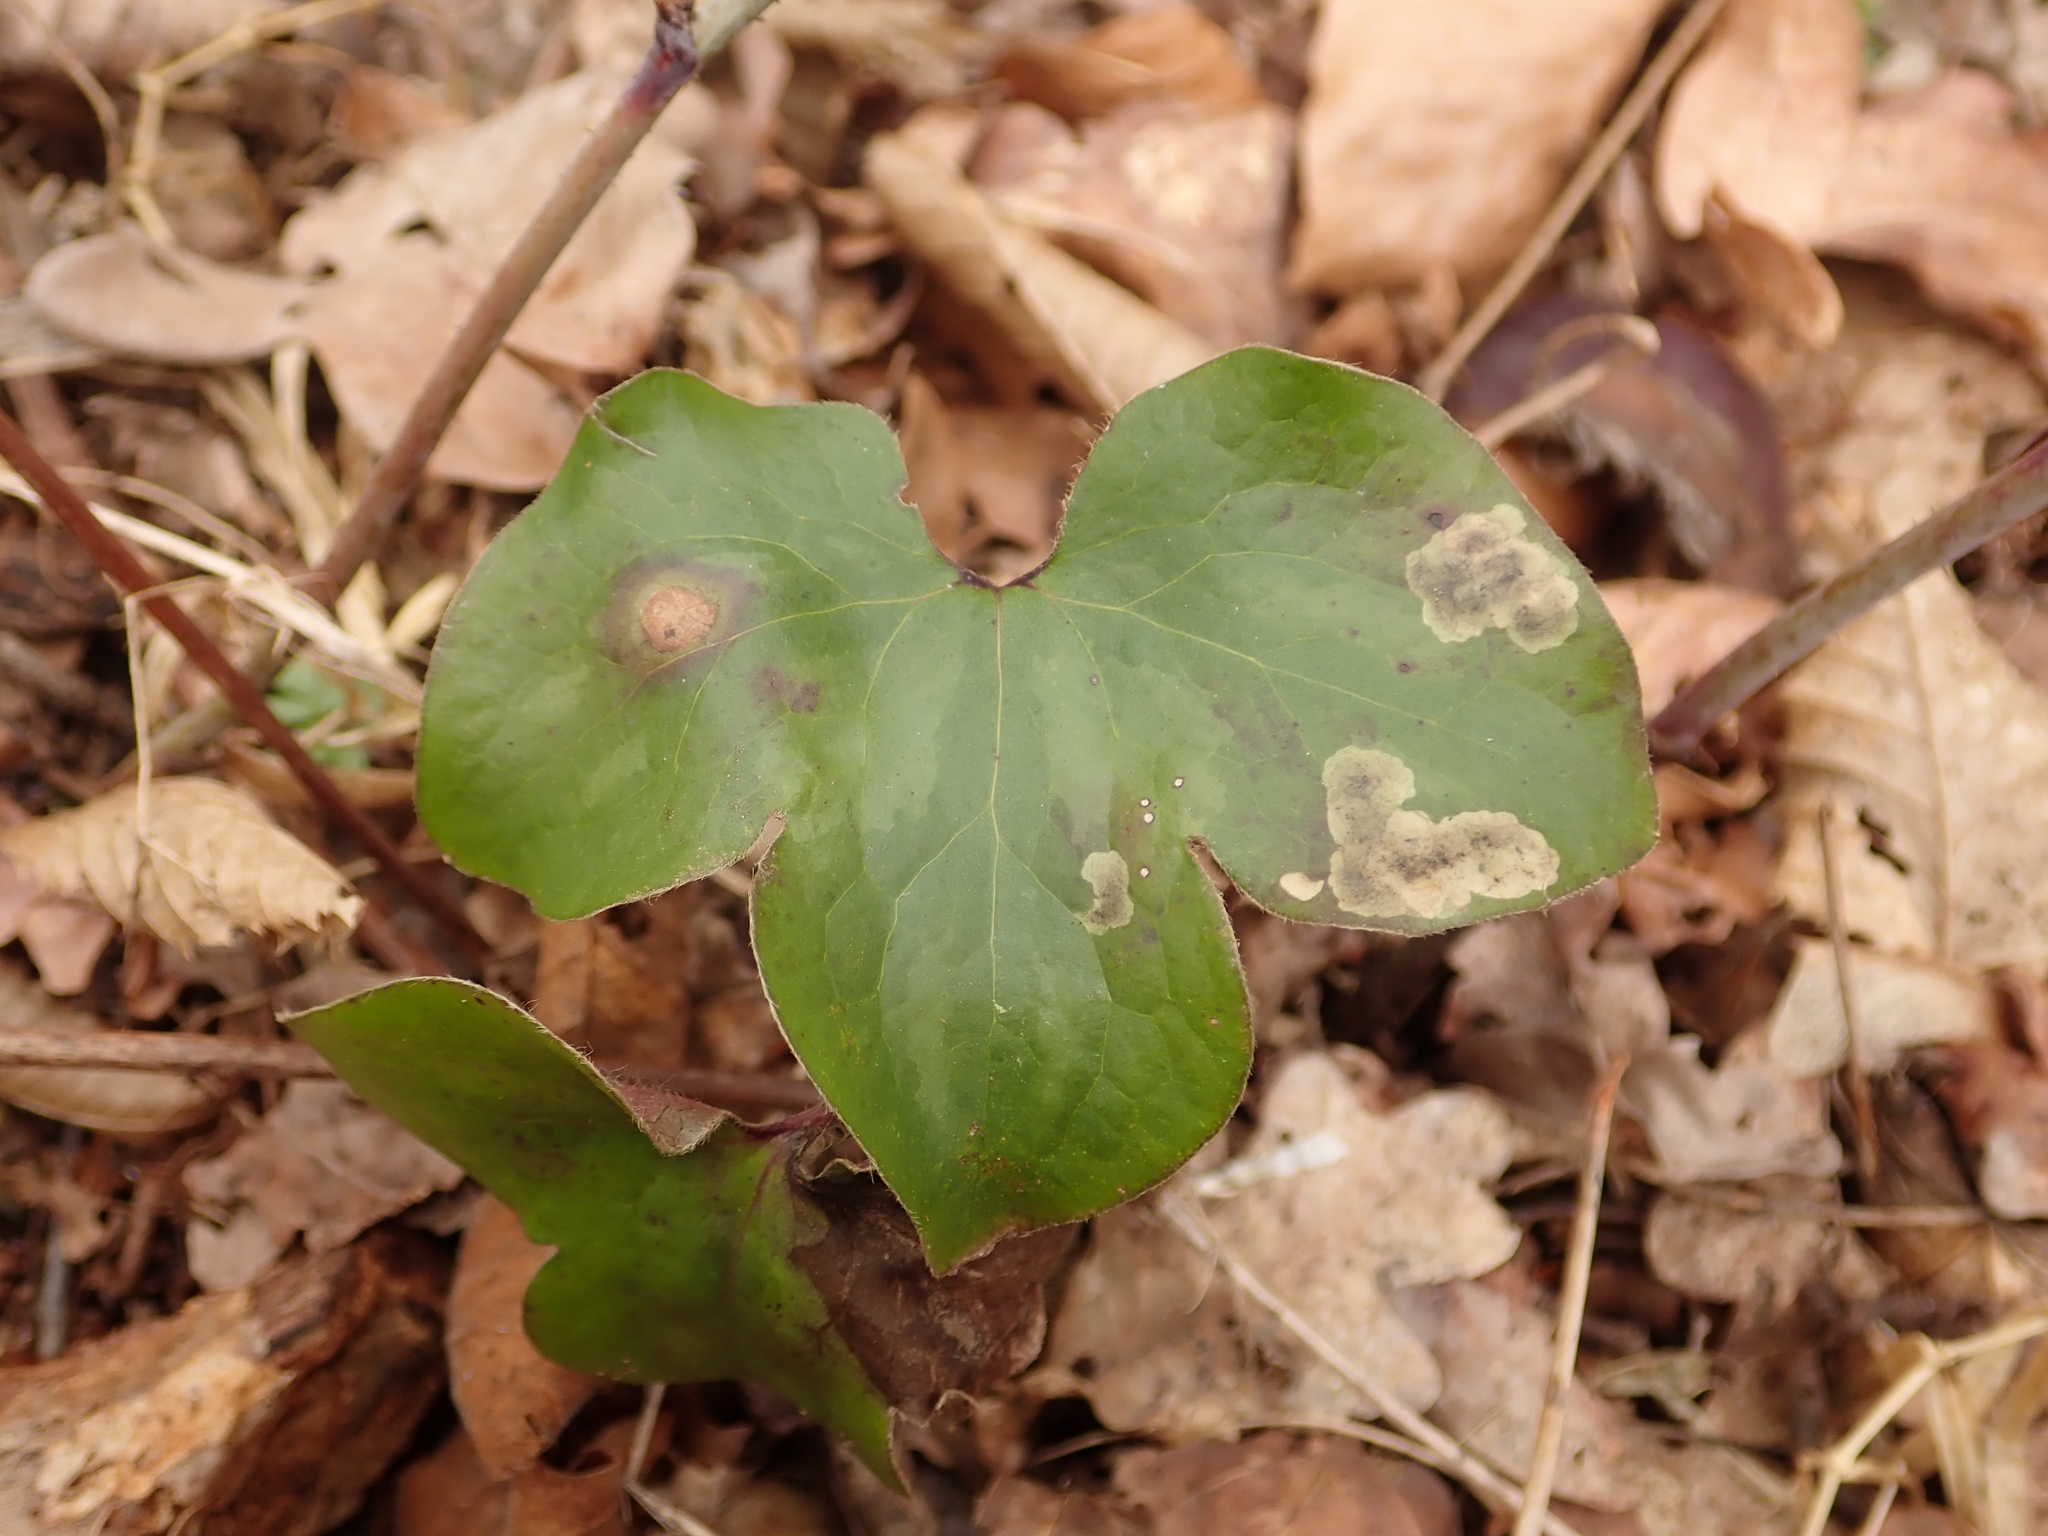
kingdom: Plantae
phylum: Tracheophyta
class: Magnoliopsida
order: Ranunculales
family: Ranunculaceae
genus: Hepatica
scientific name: Hepatica nobilis
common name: Liverleaf
